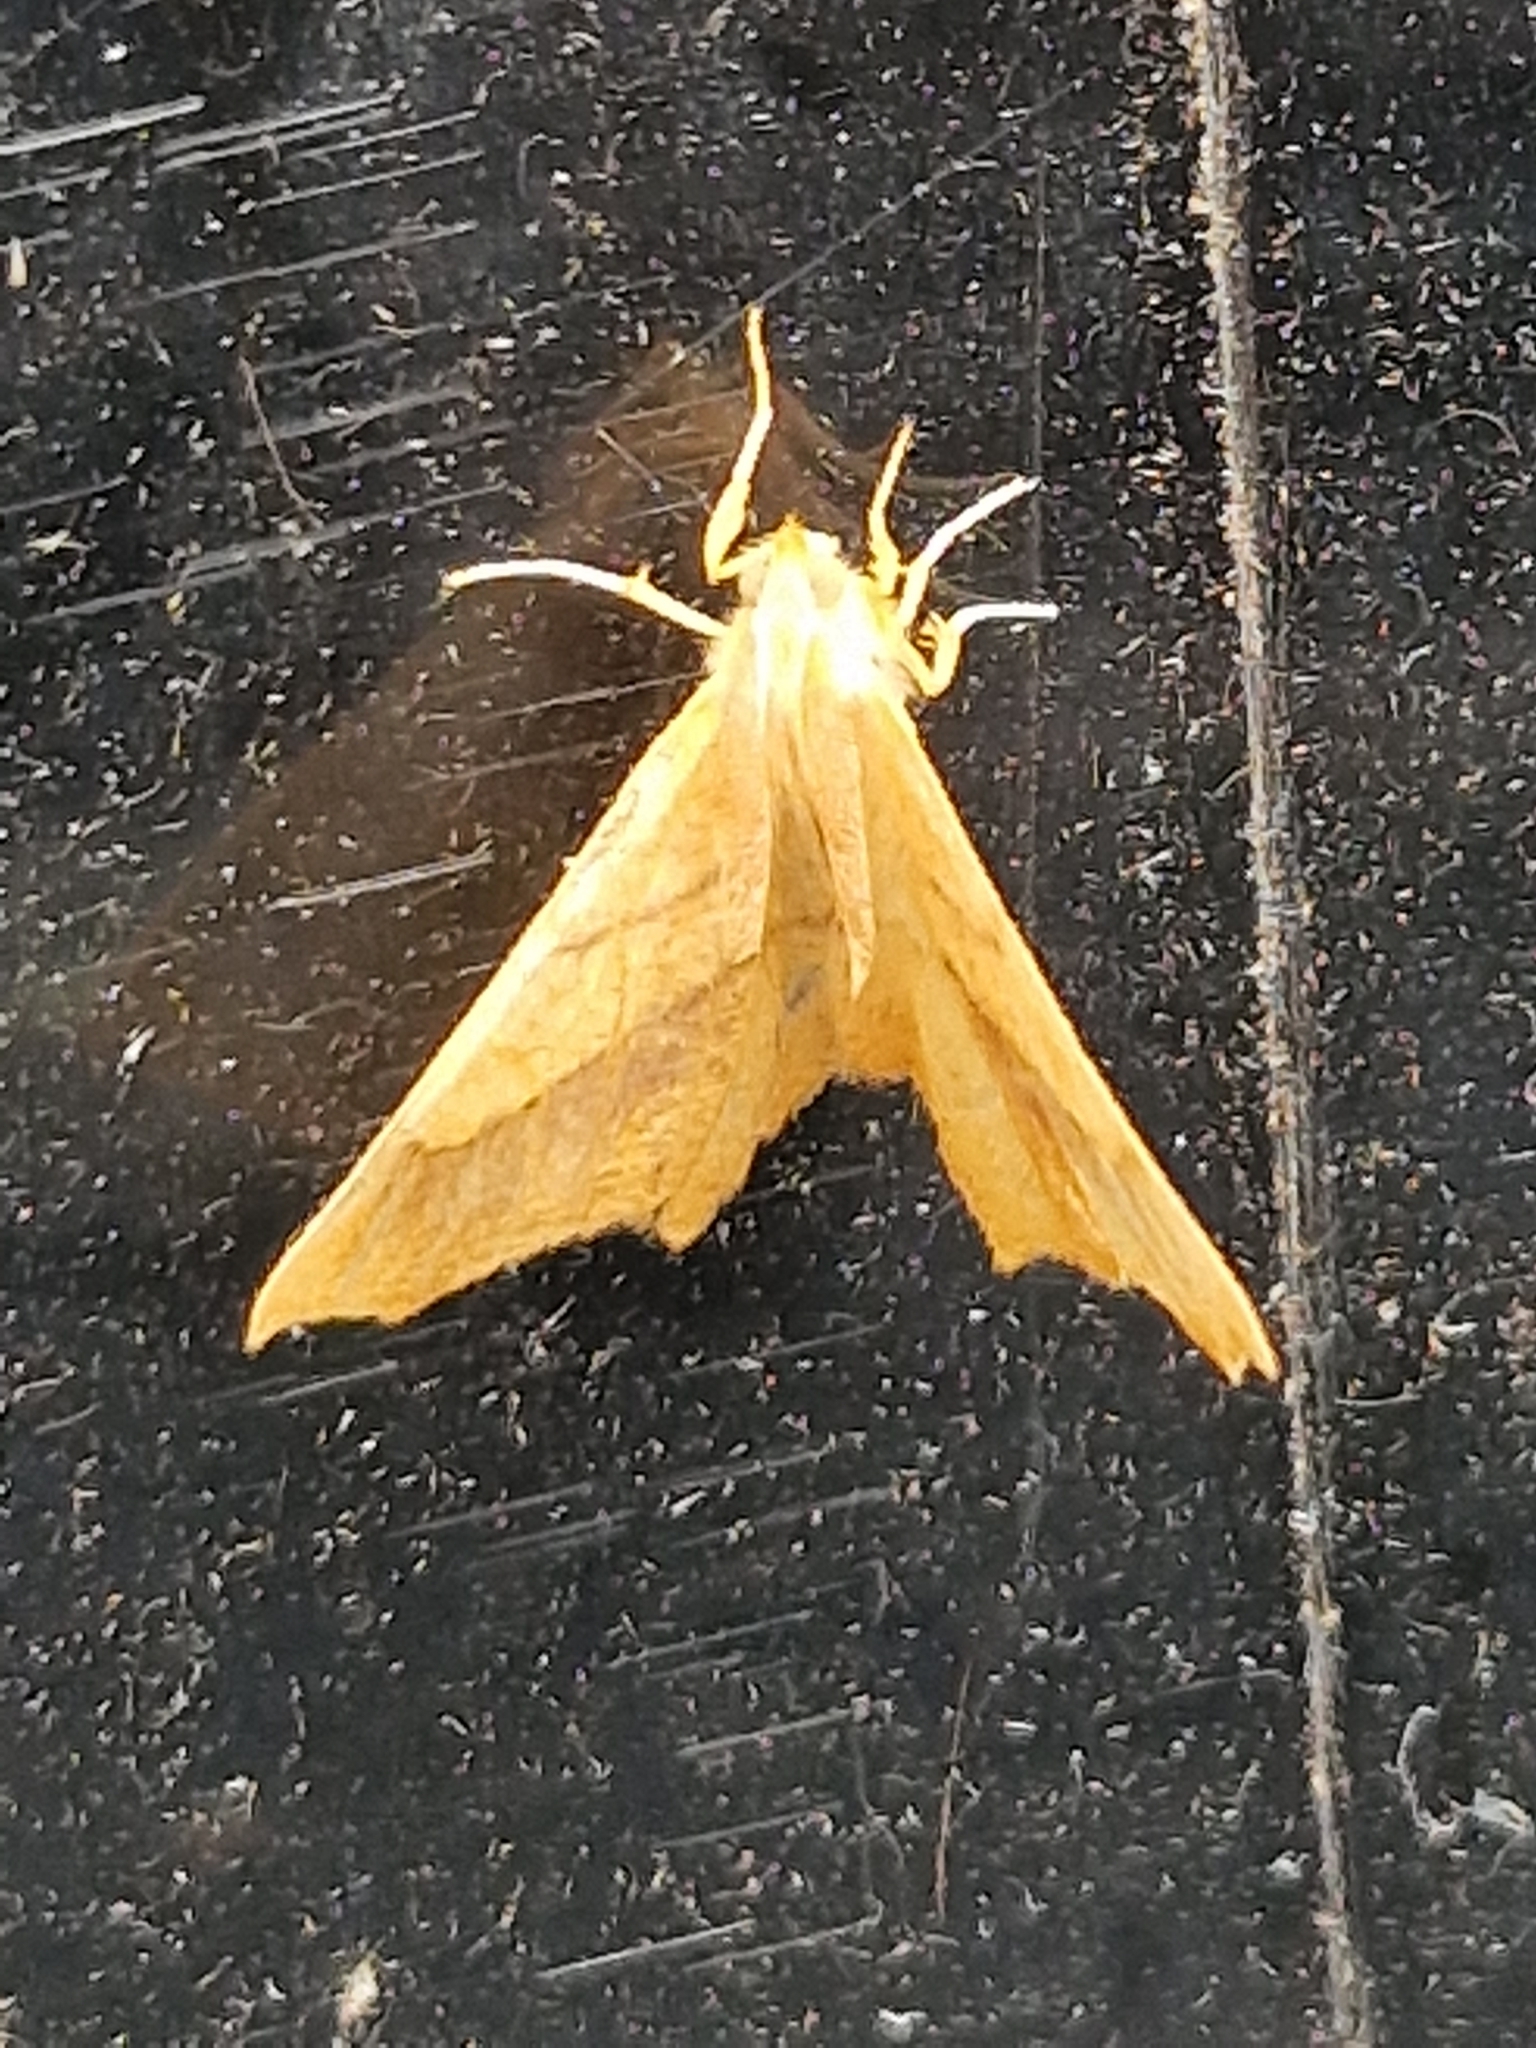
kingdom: Animalia
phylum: Arthropoda
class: Insecta
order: Lepidoptera
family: Geometridae
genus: Ennomos
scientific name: Ennomos quercinaria
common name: August thorn
